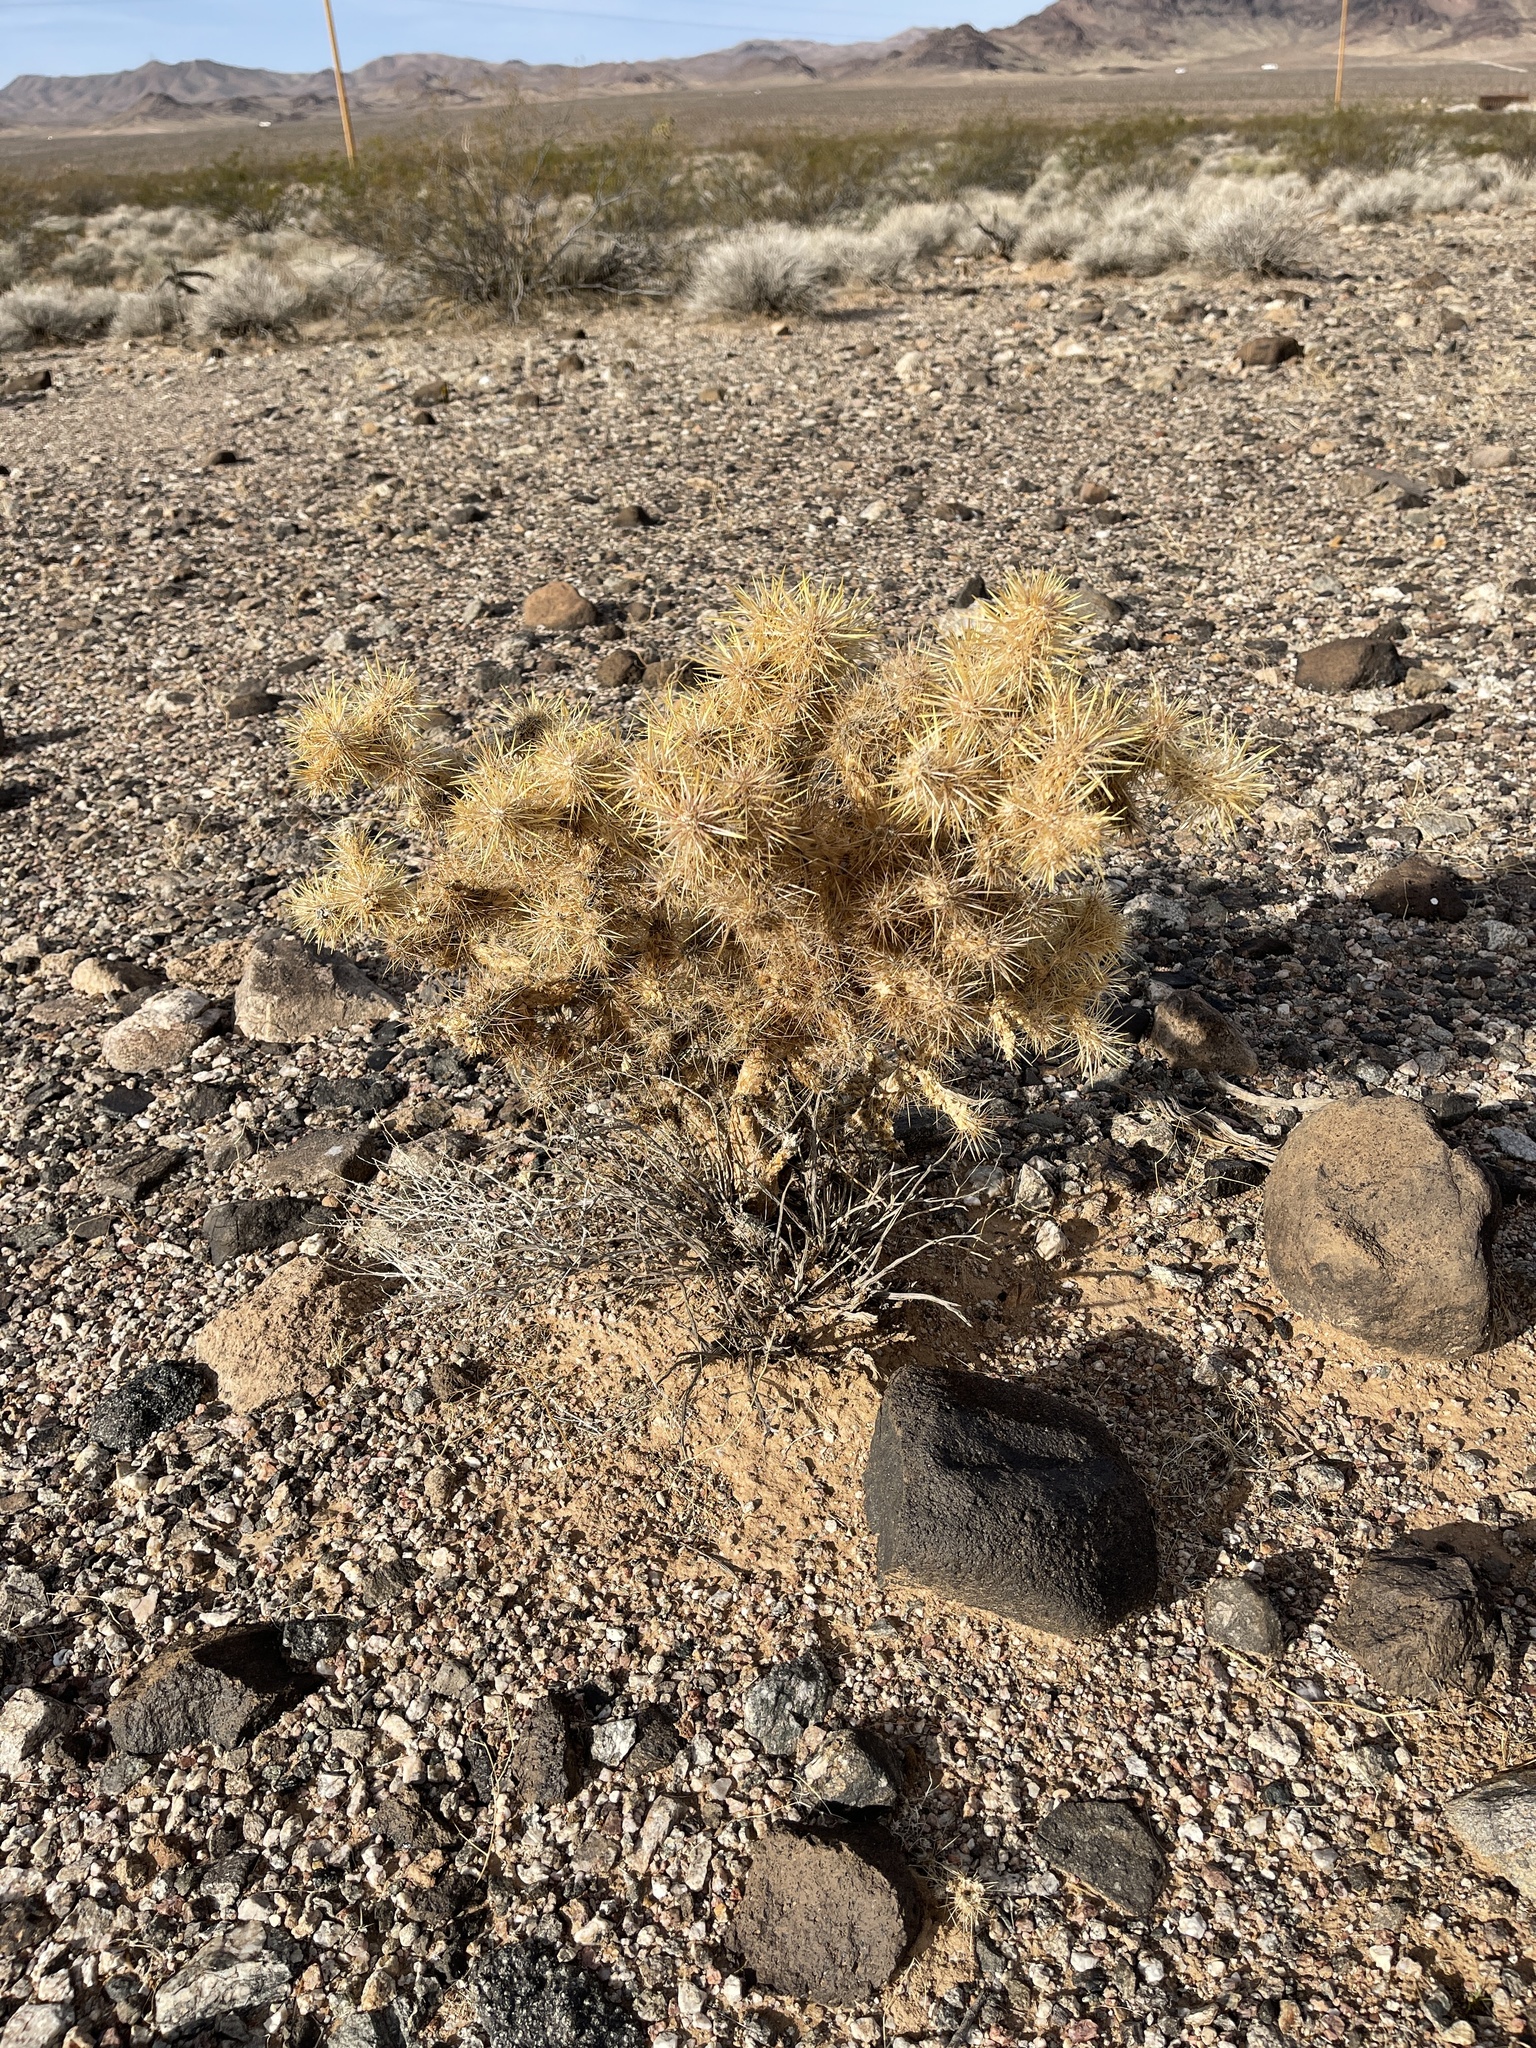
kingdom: Plantae
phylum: Tracheophyta
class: Magnoliopsida
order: Caryophyllales
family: Cactaceae
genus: Cylindropuntia
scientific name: Cylindropuntia echinocarpa
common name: Ground cholla
